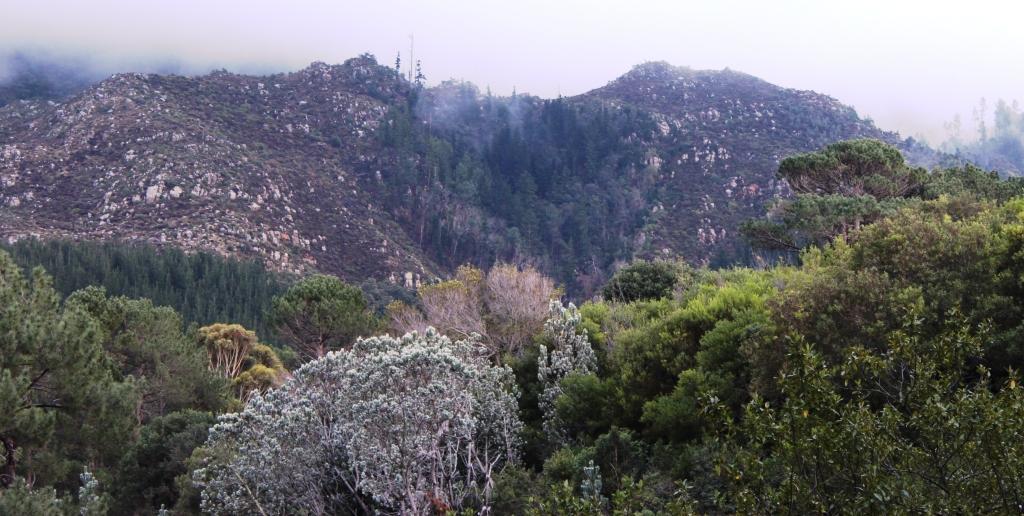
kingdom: Plantae
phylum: Tracheophyta
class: Magnoliopsida
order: Proteales
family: Proteaceae
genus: Leucadendron
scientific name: Leucadendron argenteum
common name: Cape silver tree
